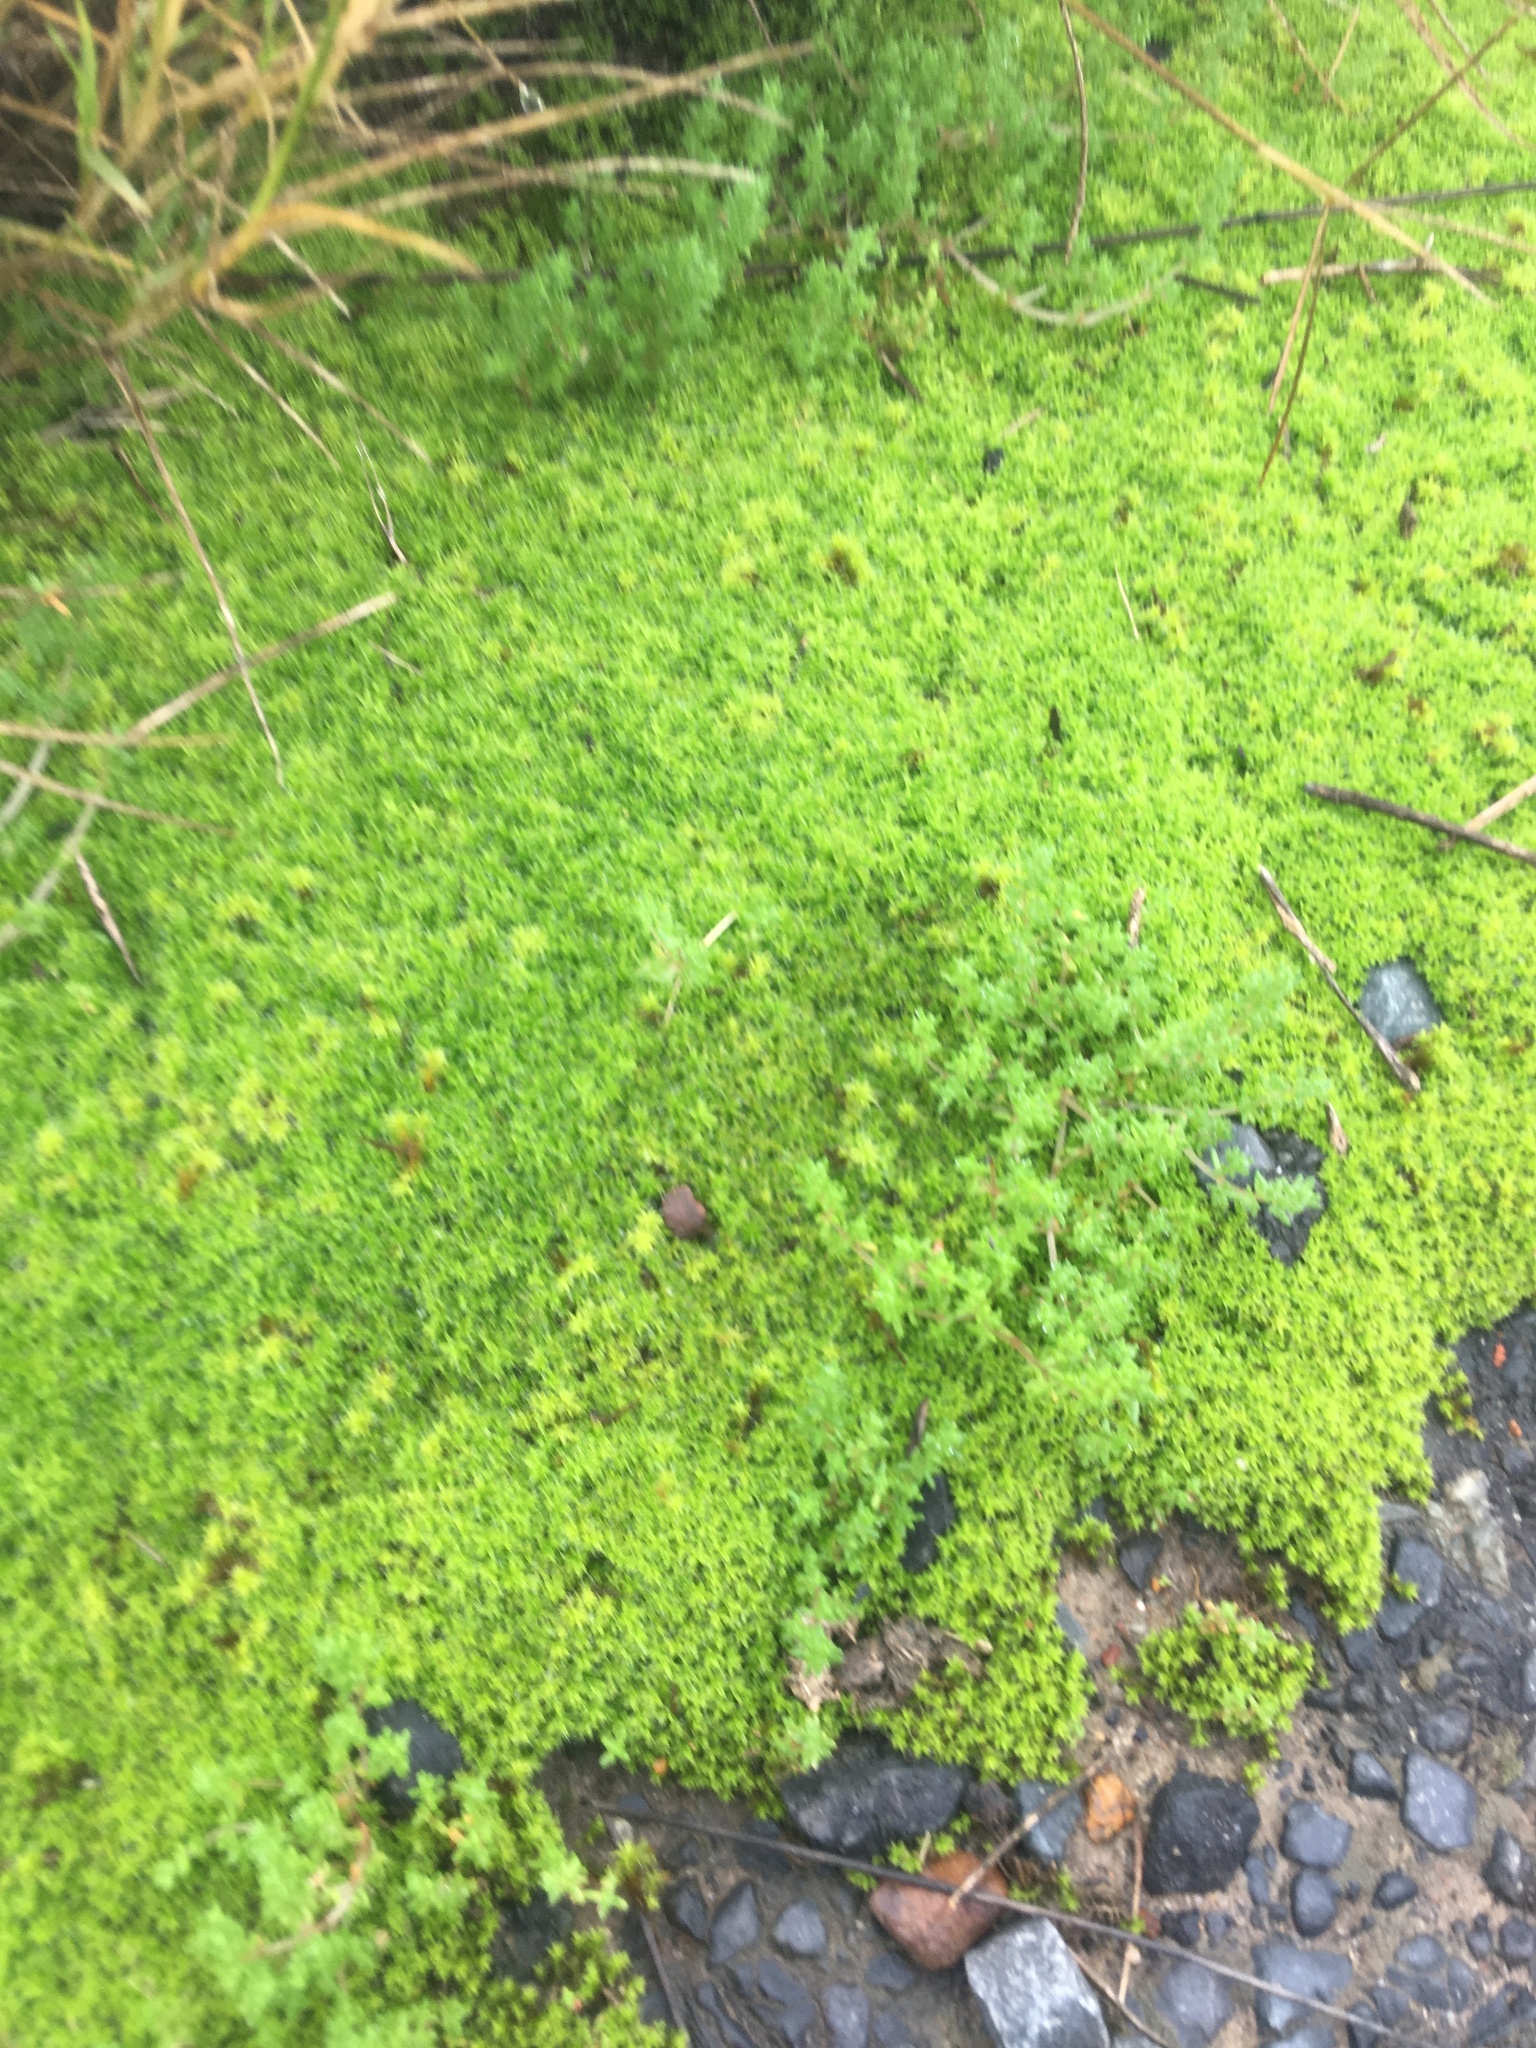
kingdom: Plantae
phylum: Bryophyta
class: Bryopsida
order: Pottiales
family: Pottiaceae
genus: Pseudocrossidium
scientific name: Pseudocrossidium crinitum
